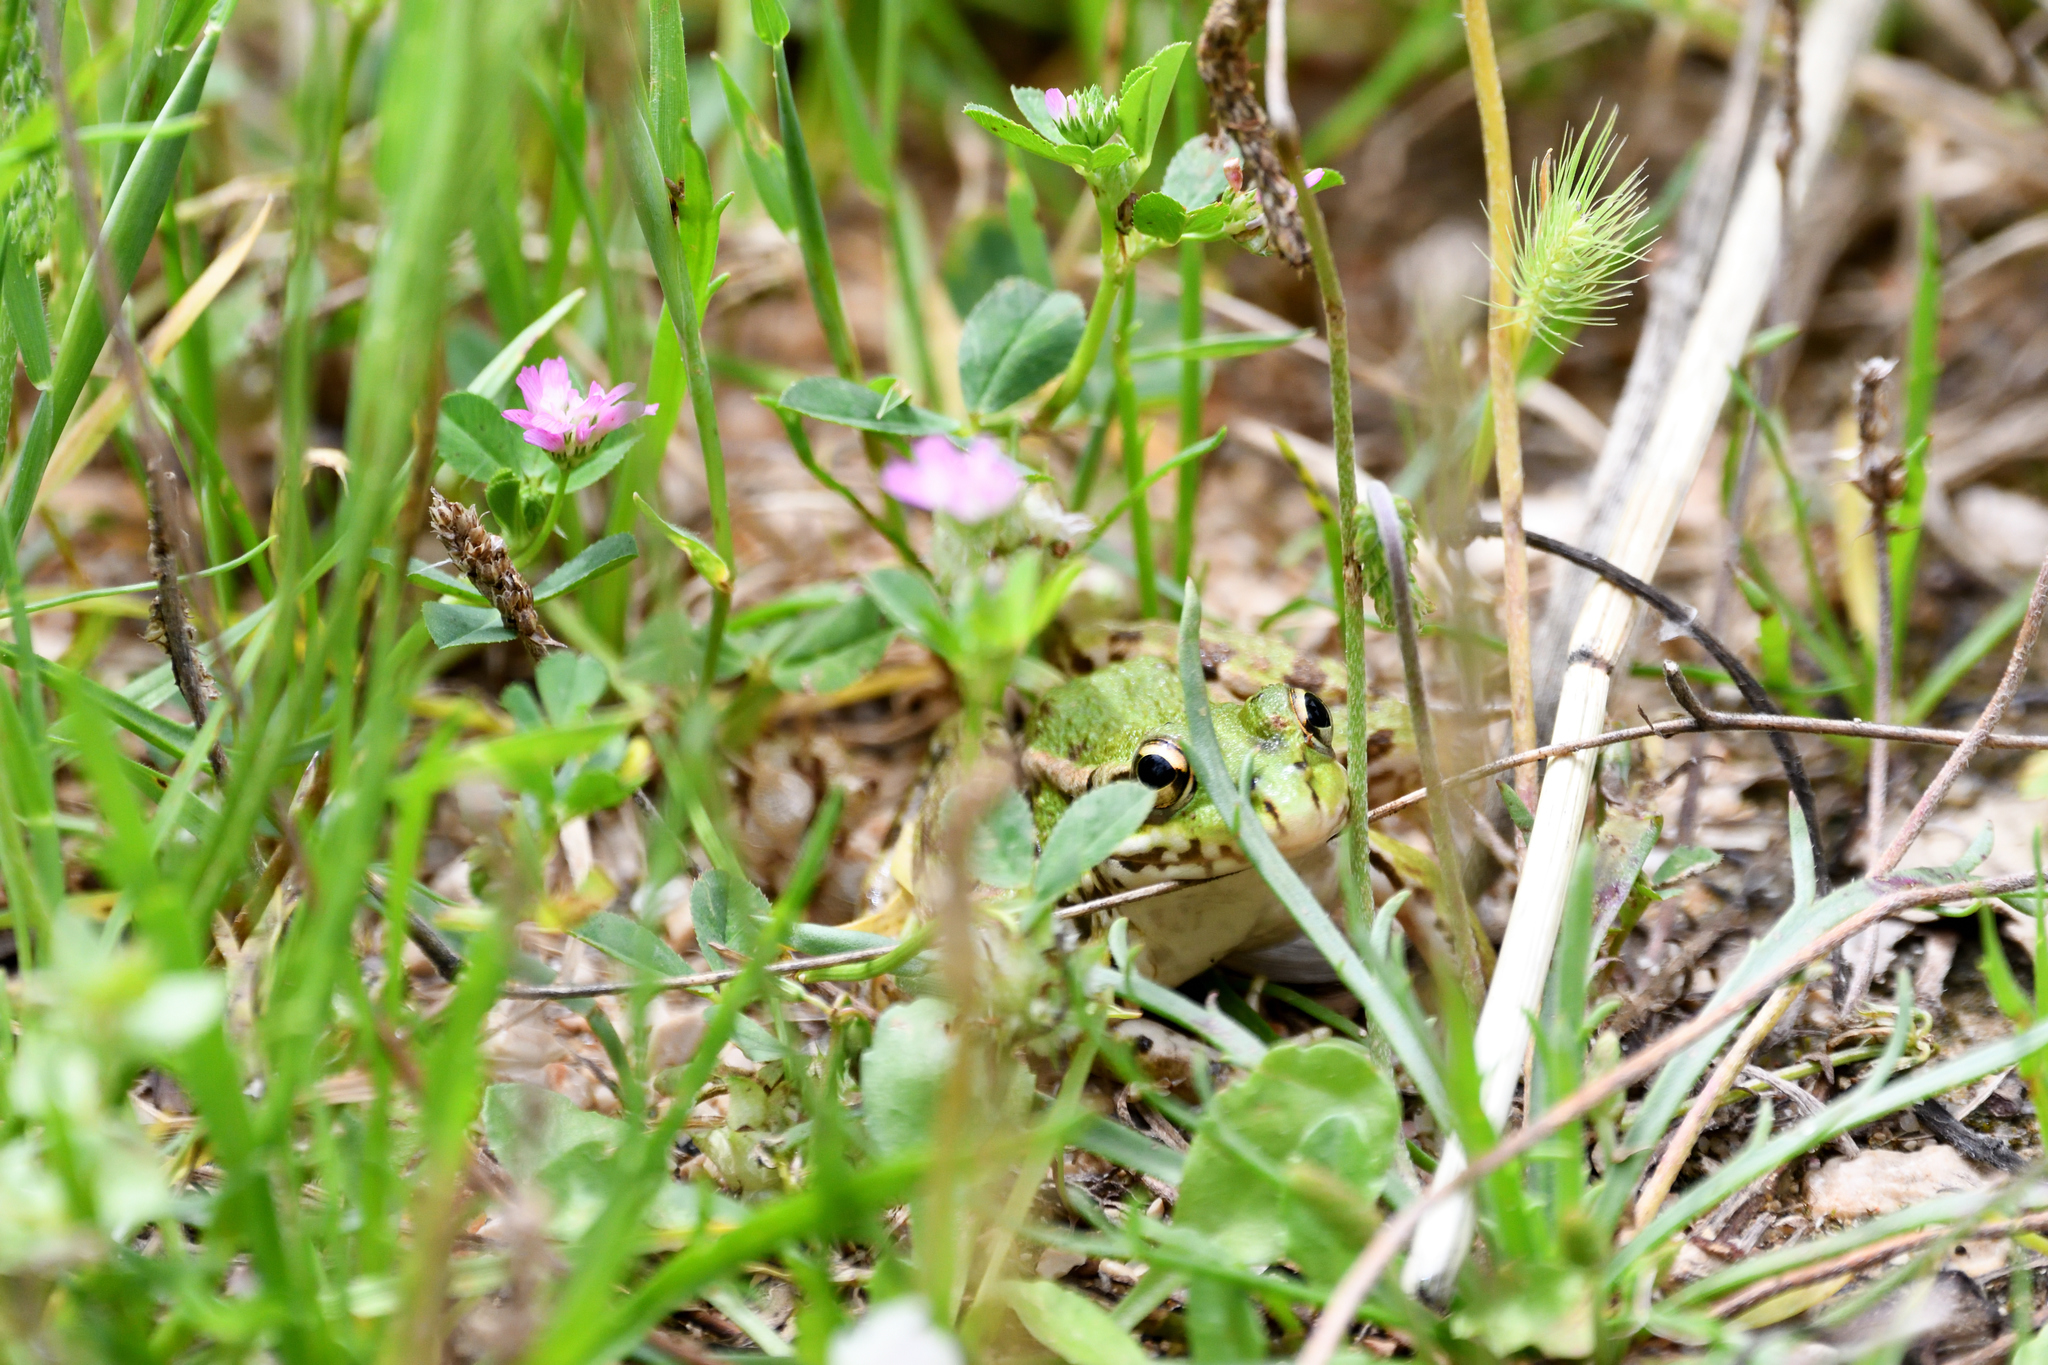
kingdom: Animalia
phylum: Chordata
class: Amphibia
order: Anura
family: Ranidae
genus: Pelophylax
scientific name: Pelophylax perezi
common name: Perez's frog
